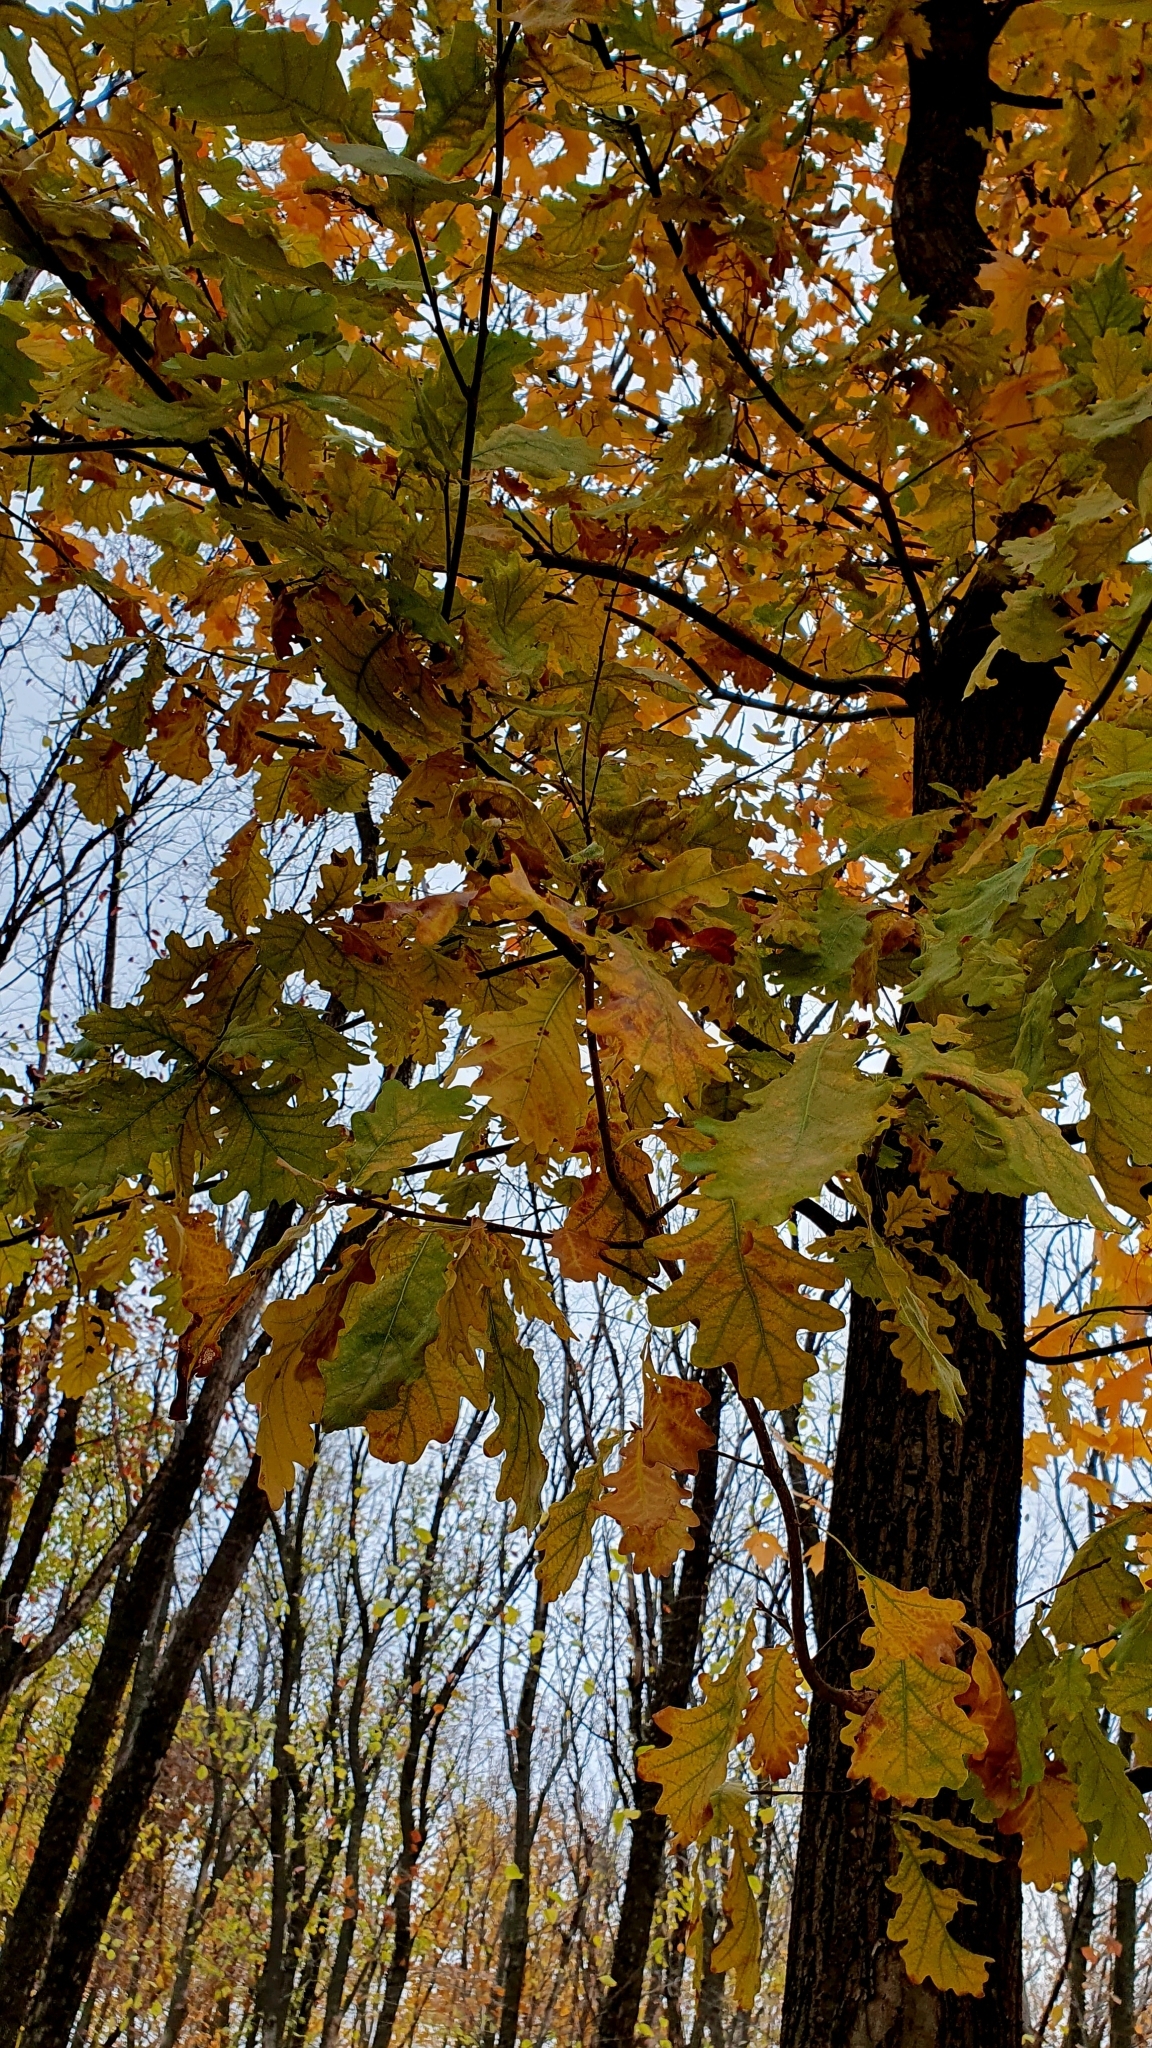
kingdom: Plantae
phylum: Tracheophyta
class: Magnoliopsida
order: Fagales
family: Fagaceae
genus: Quercus
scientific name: Quercus robur
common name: Pedunculate oak
